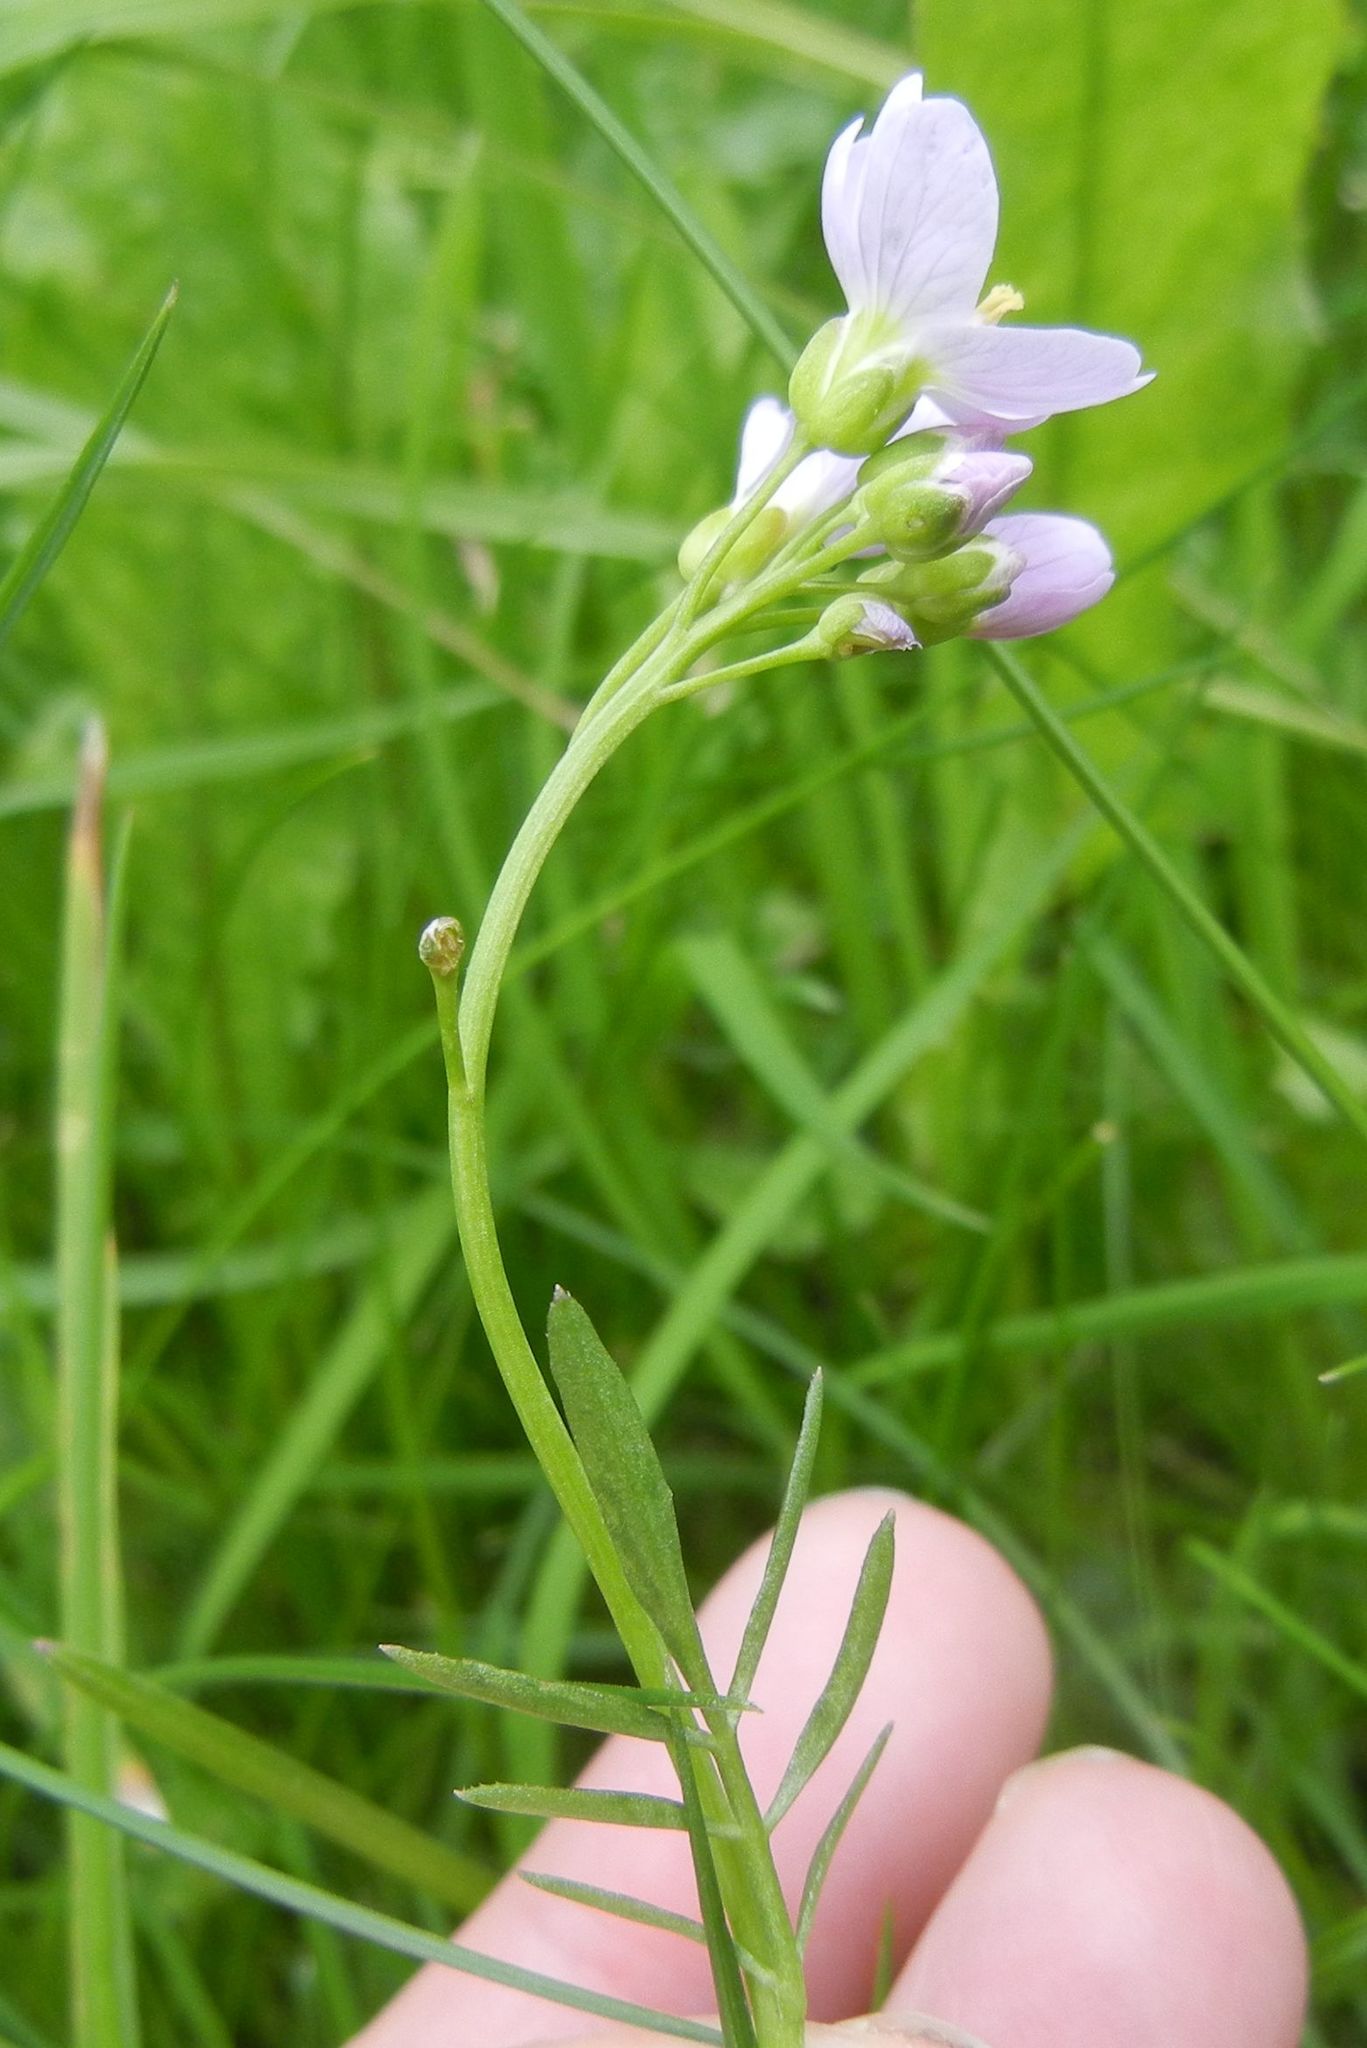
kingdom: Plantae
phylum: Tracheophyta
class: Magnoliopsida
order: Brassicales
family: Brassicaceae
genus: Cardamine
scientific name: Cardamine pratensis
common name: Cuckoo flower
